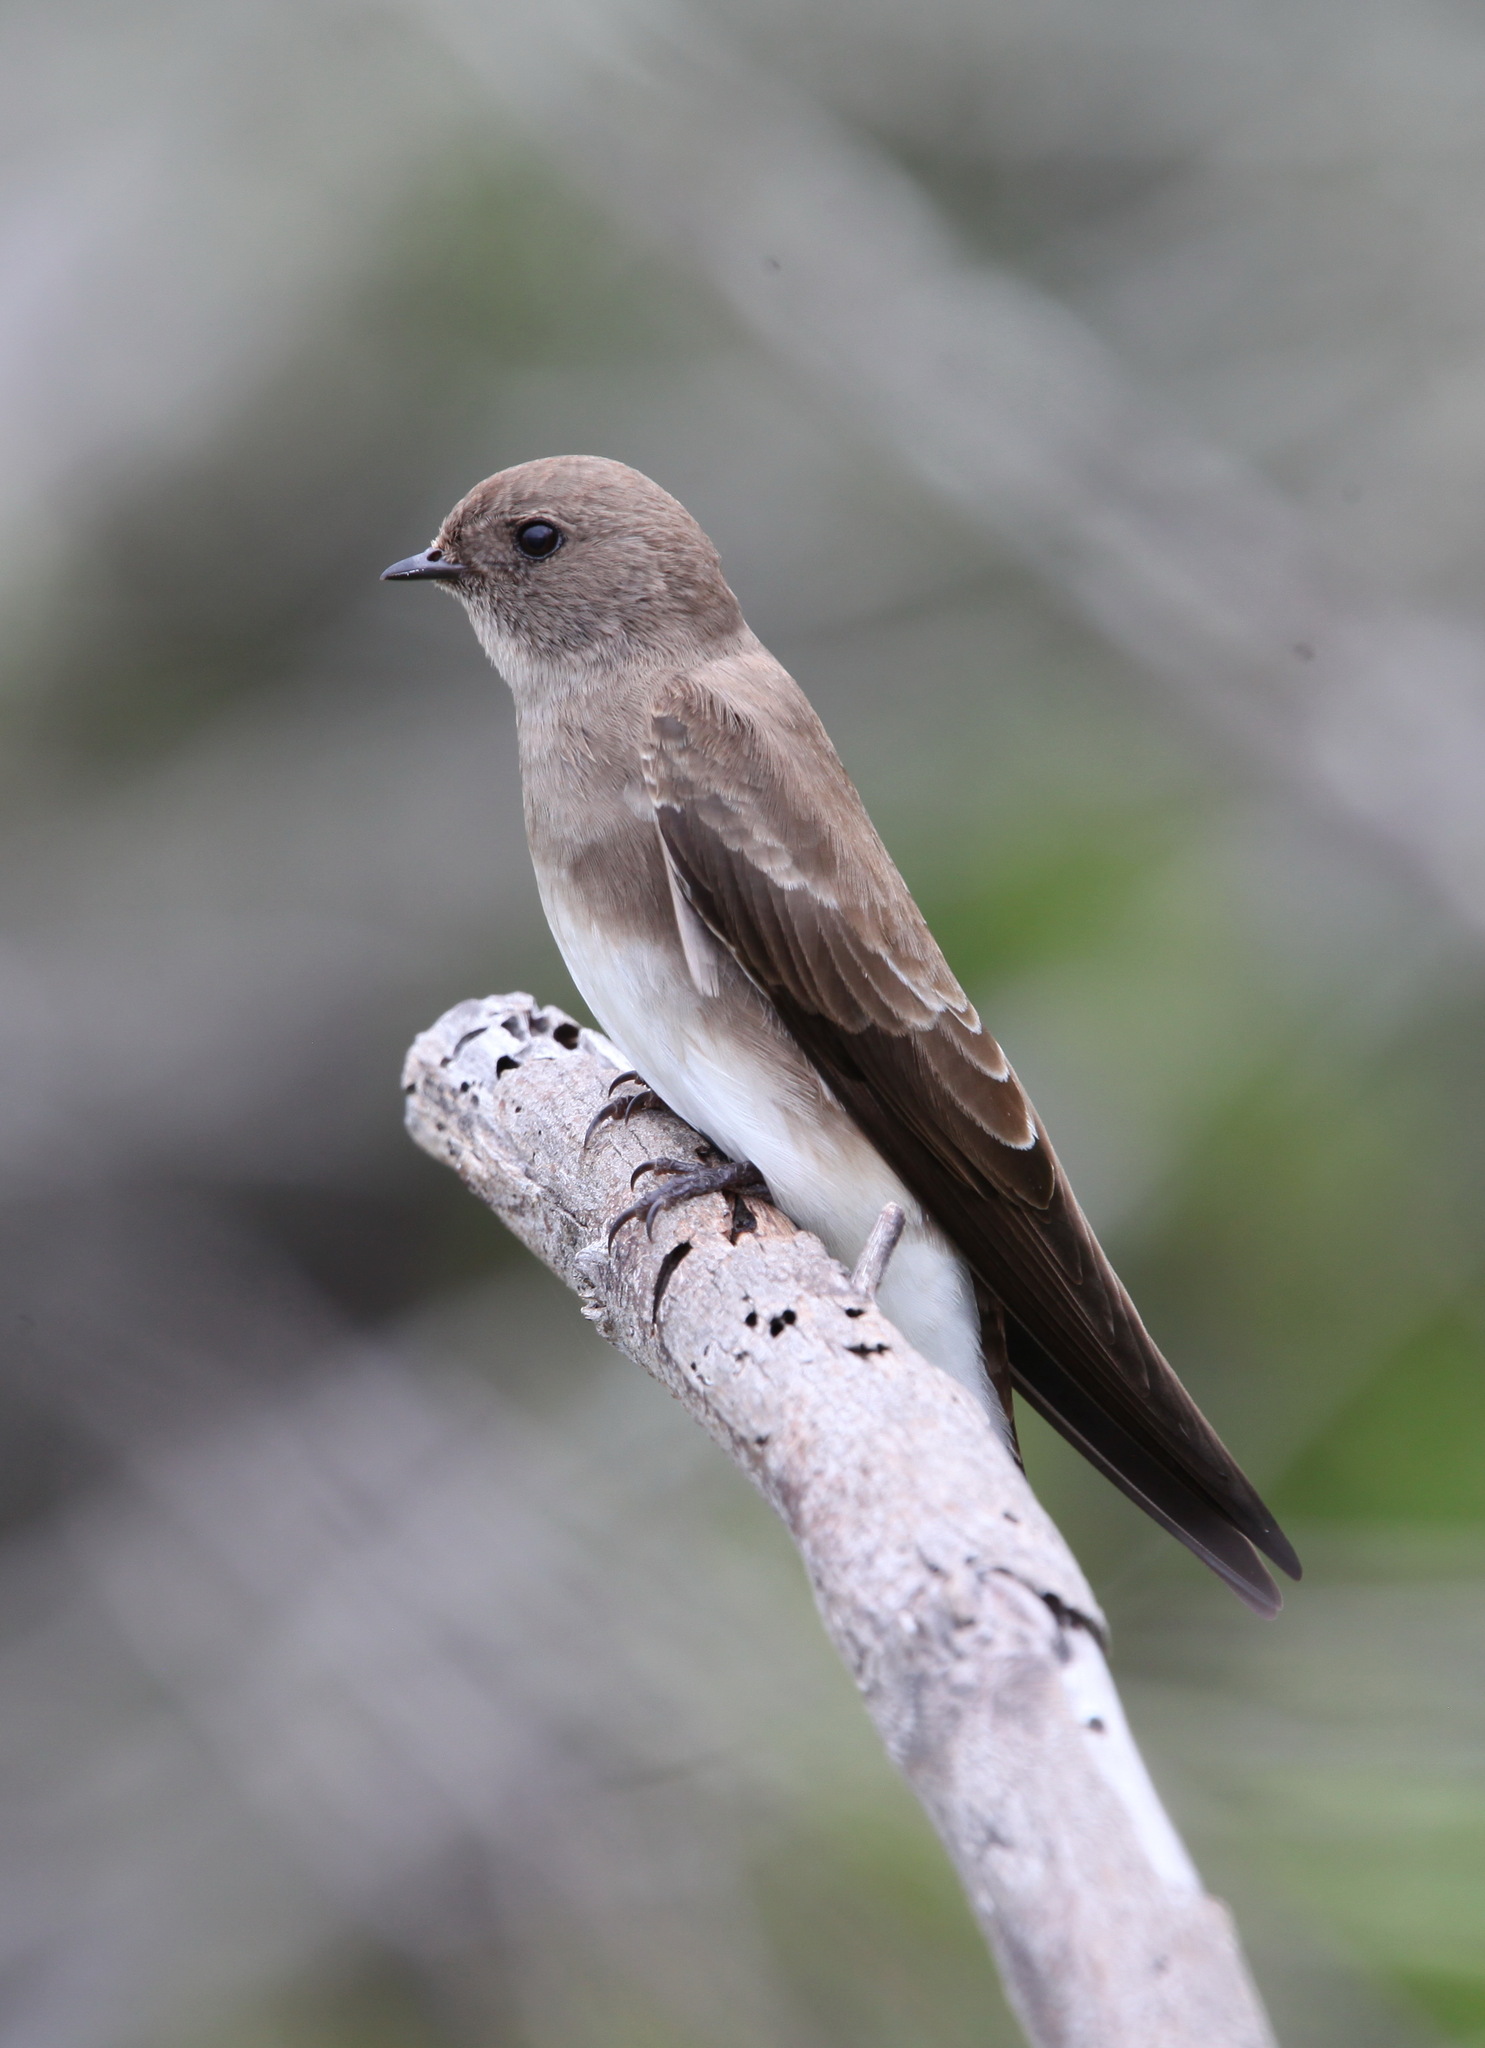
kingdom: Animalia
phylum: Chordata
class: Aves
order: Passeriformes
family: Hirundinidae
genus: Riparia
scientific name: Riparia paludicola
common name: Brown-throated martin
